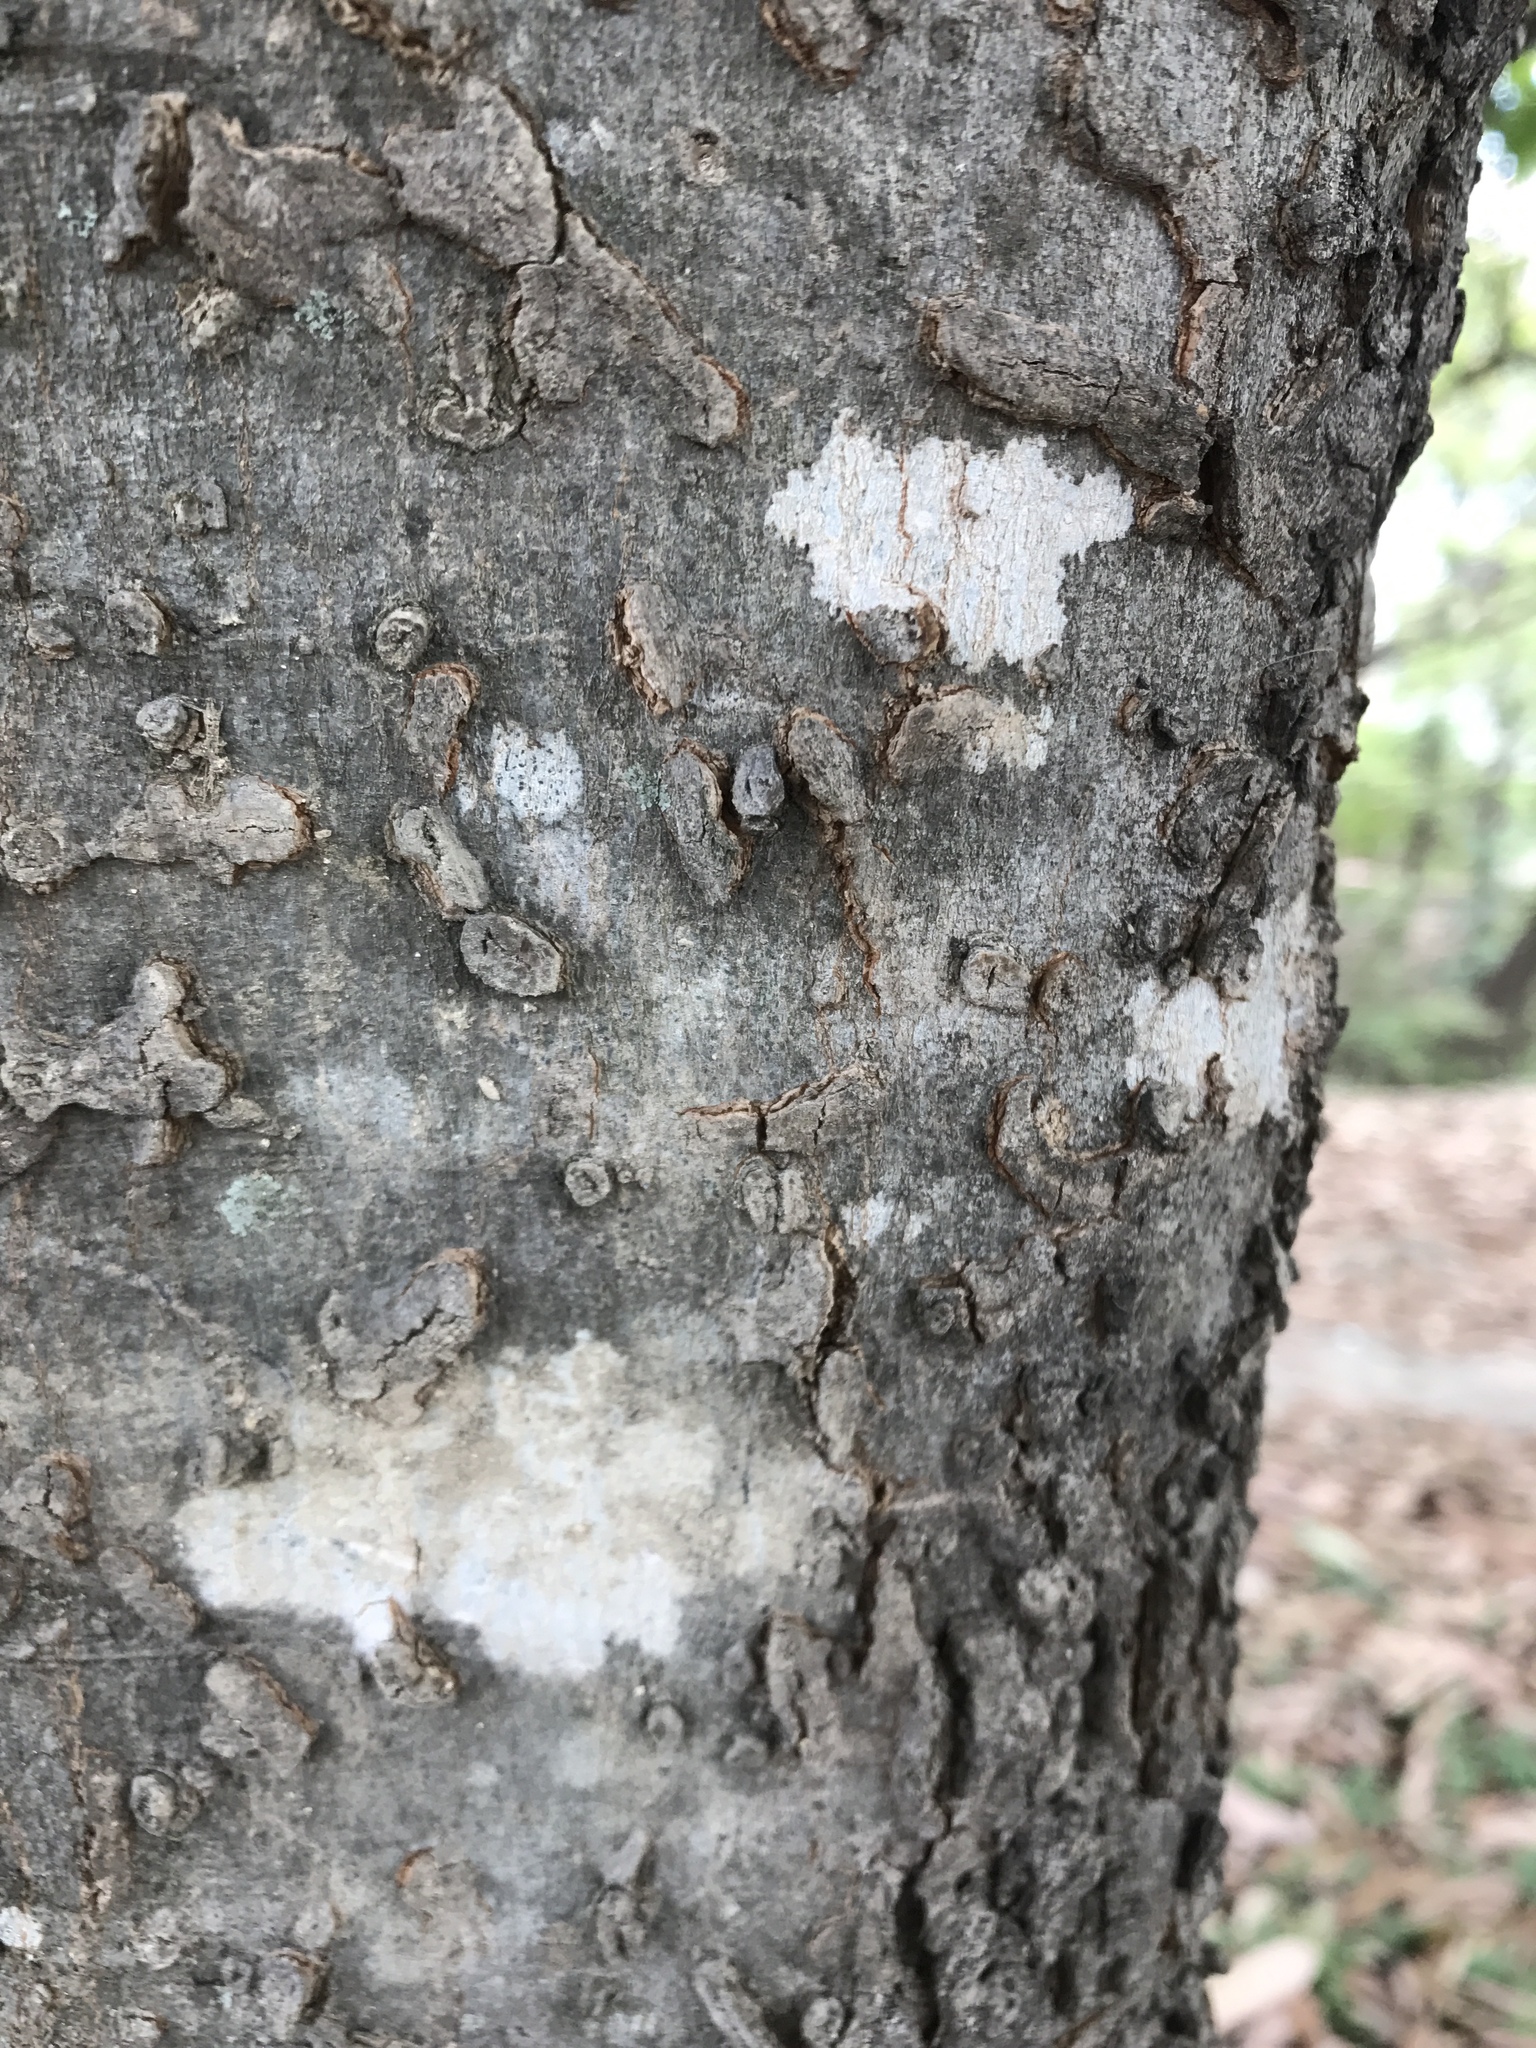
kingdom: Plantae
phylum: Tracheophyta
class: Magnoliopsida
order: Rosales
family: Cannabaceae
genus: Celtis
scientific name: Celtis laevigata
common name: Sugarberry
